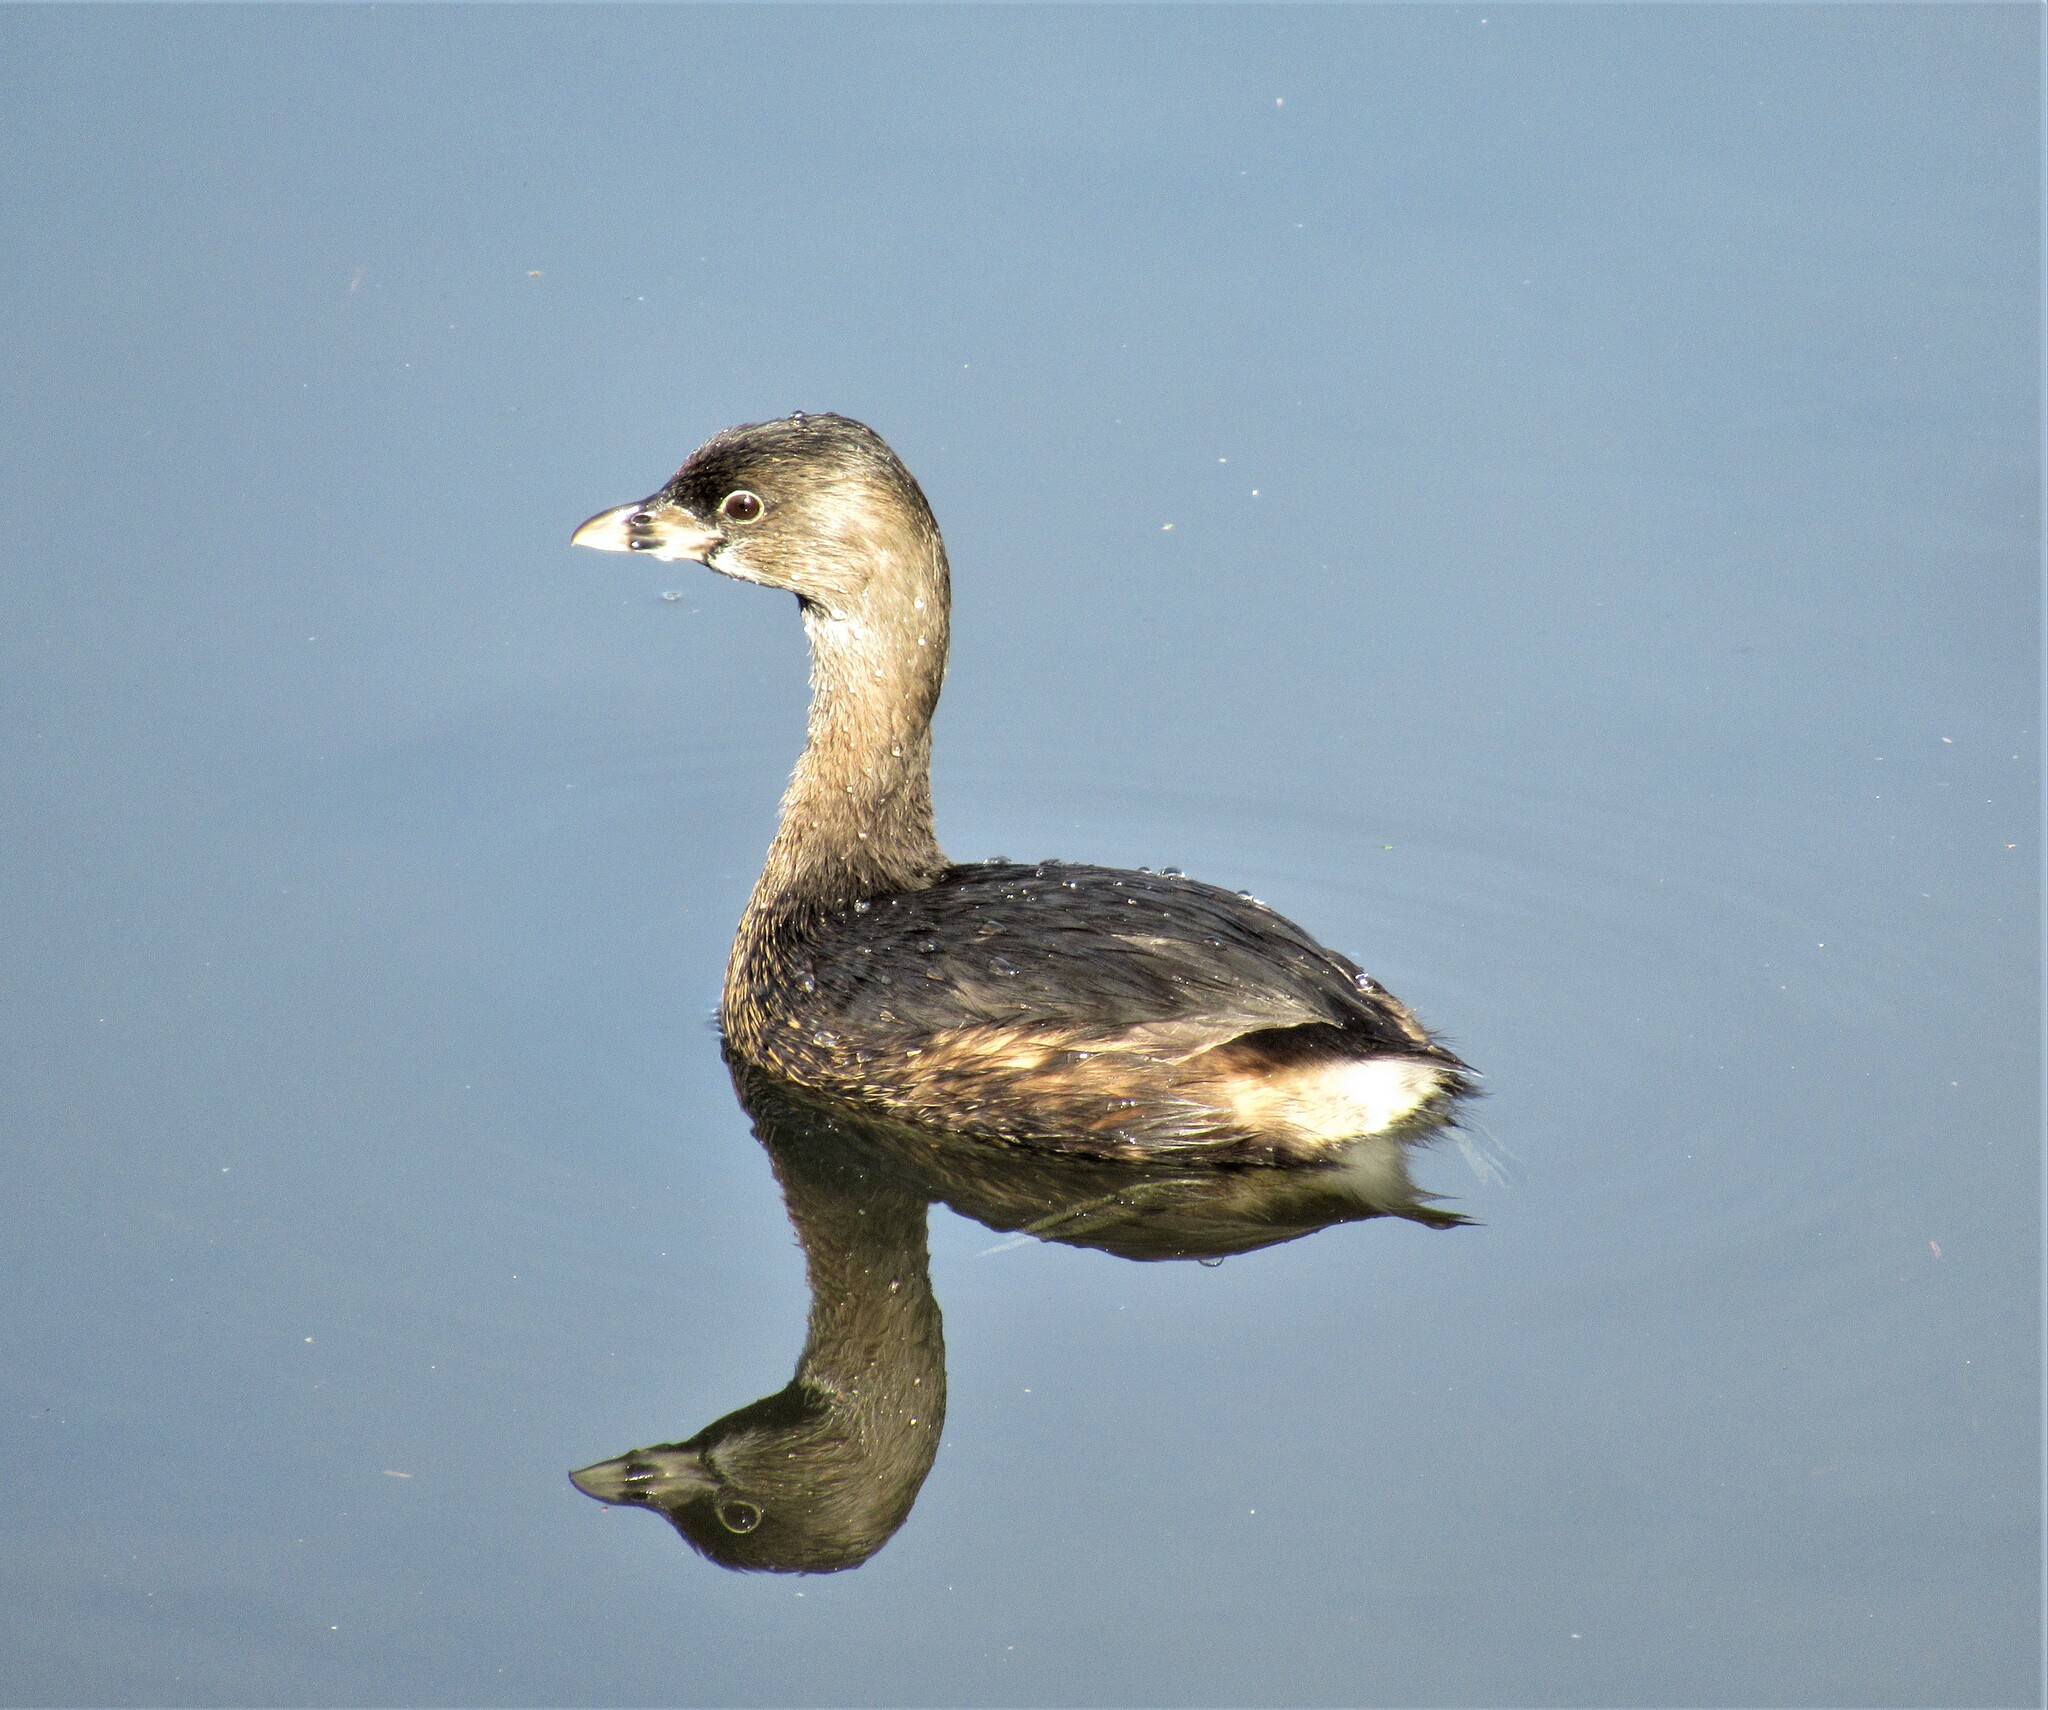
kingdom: Animalia
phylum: Chordata
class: Aves
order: Podicipediformes
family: Podicipedidae
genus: Podilymbus
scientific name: Podilymbus podiceps
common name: Pied-billed grebe
